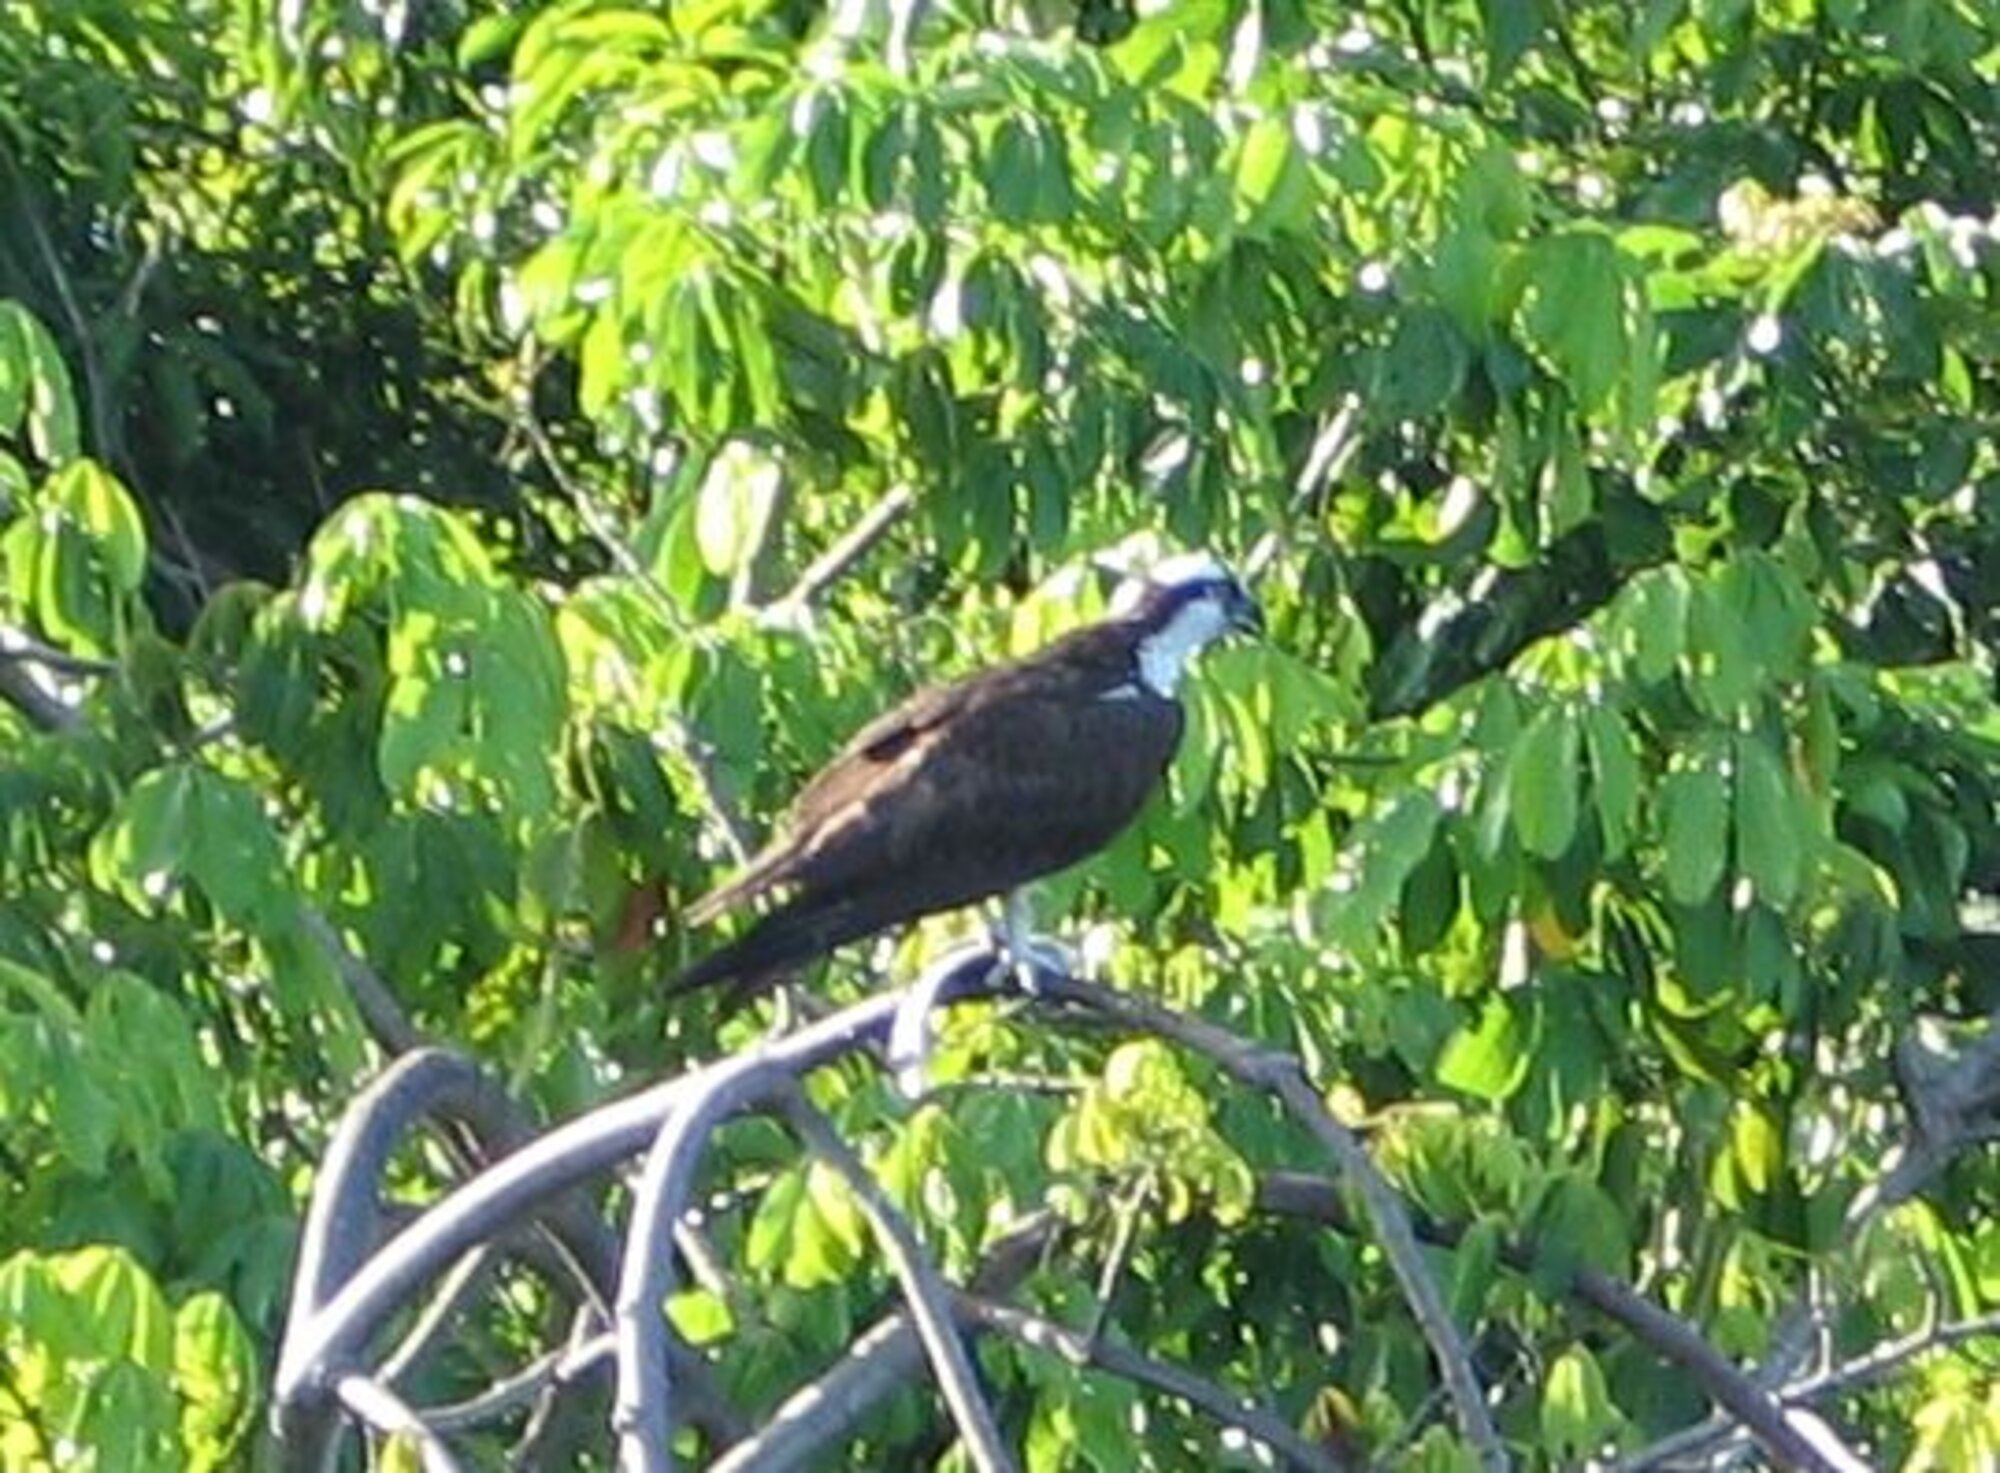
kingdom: Animalia
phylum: Chordata
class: Aves
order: Accipitriformes
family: Pandionidae
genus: Pandion
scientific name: Pandion haliaetus
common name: Osprey
